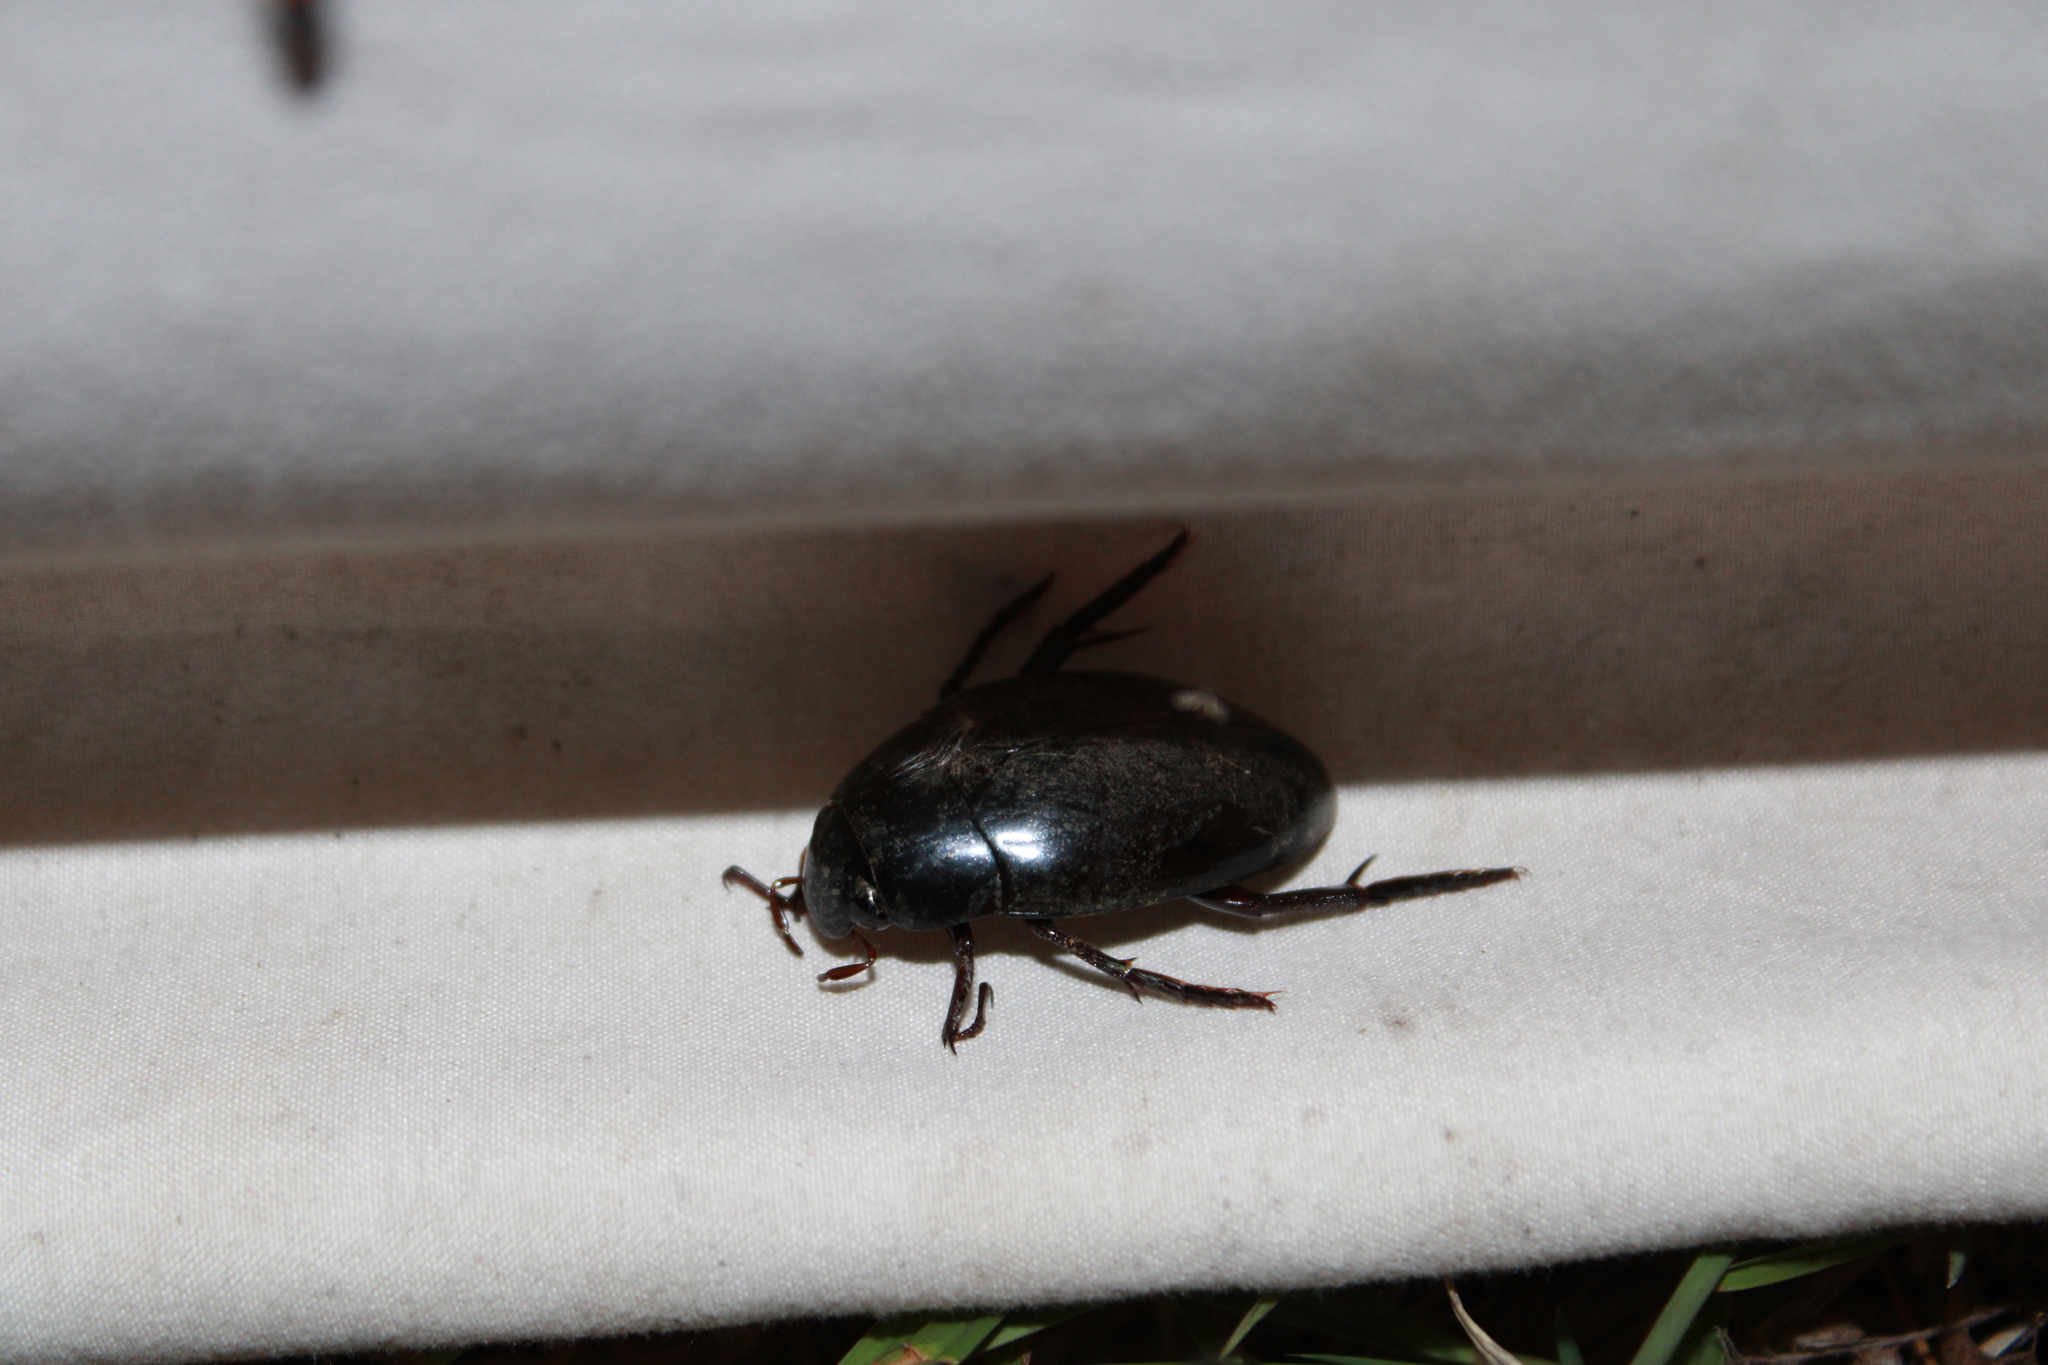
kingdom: Animalia
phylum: Arthropoda
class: Insecta
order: Coleoptera
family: Hydrophilidae
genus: Hydrophilus
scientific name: Hydrophilus ovatus
